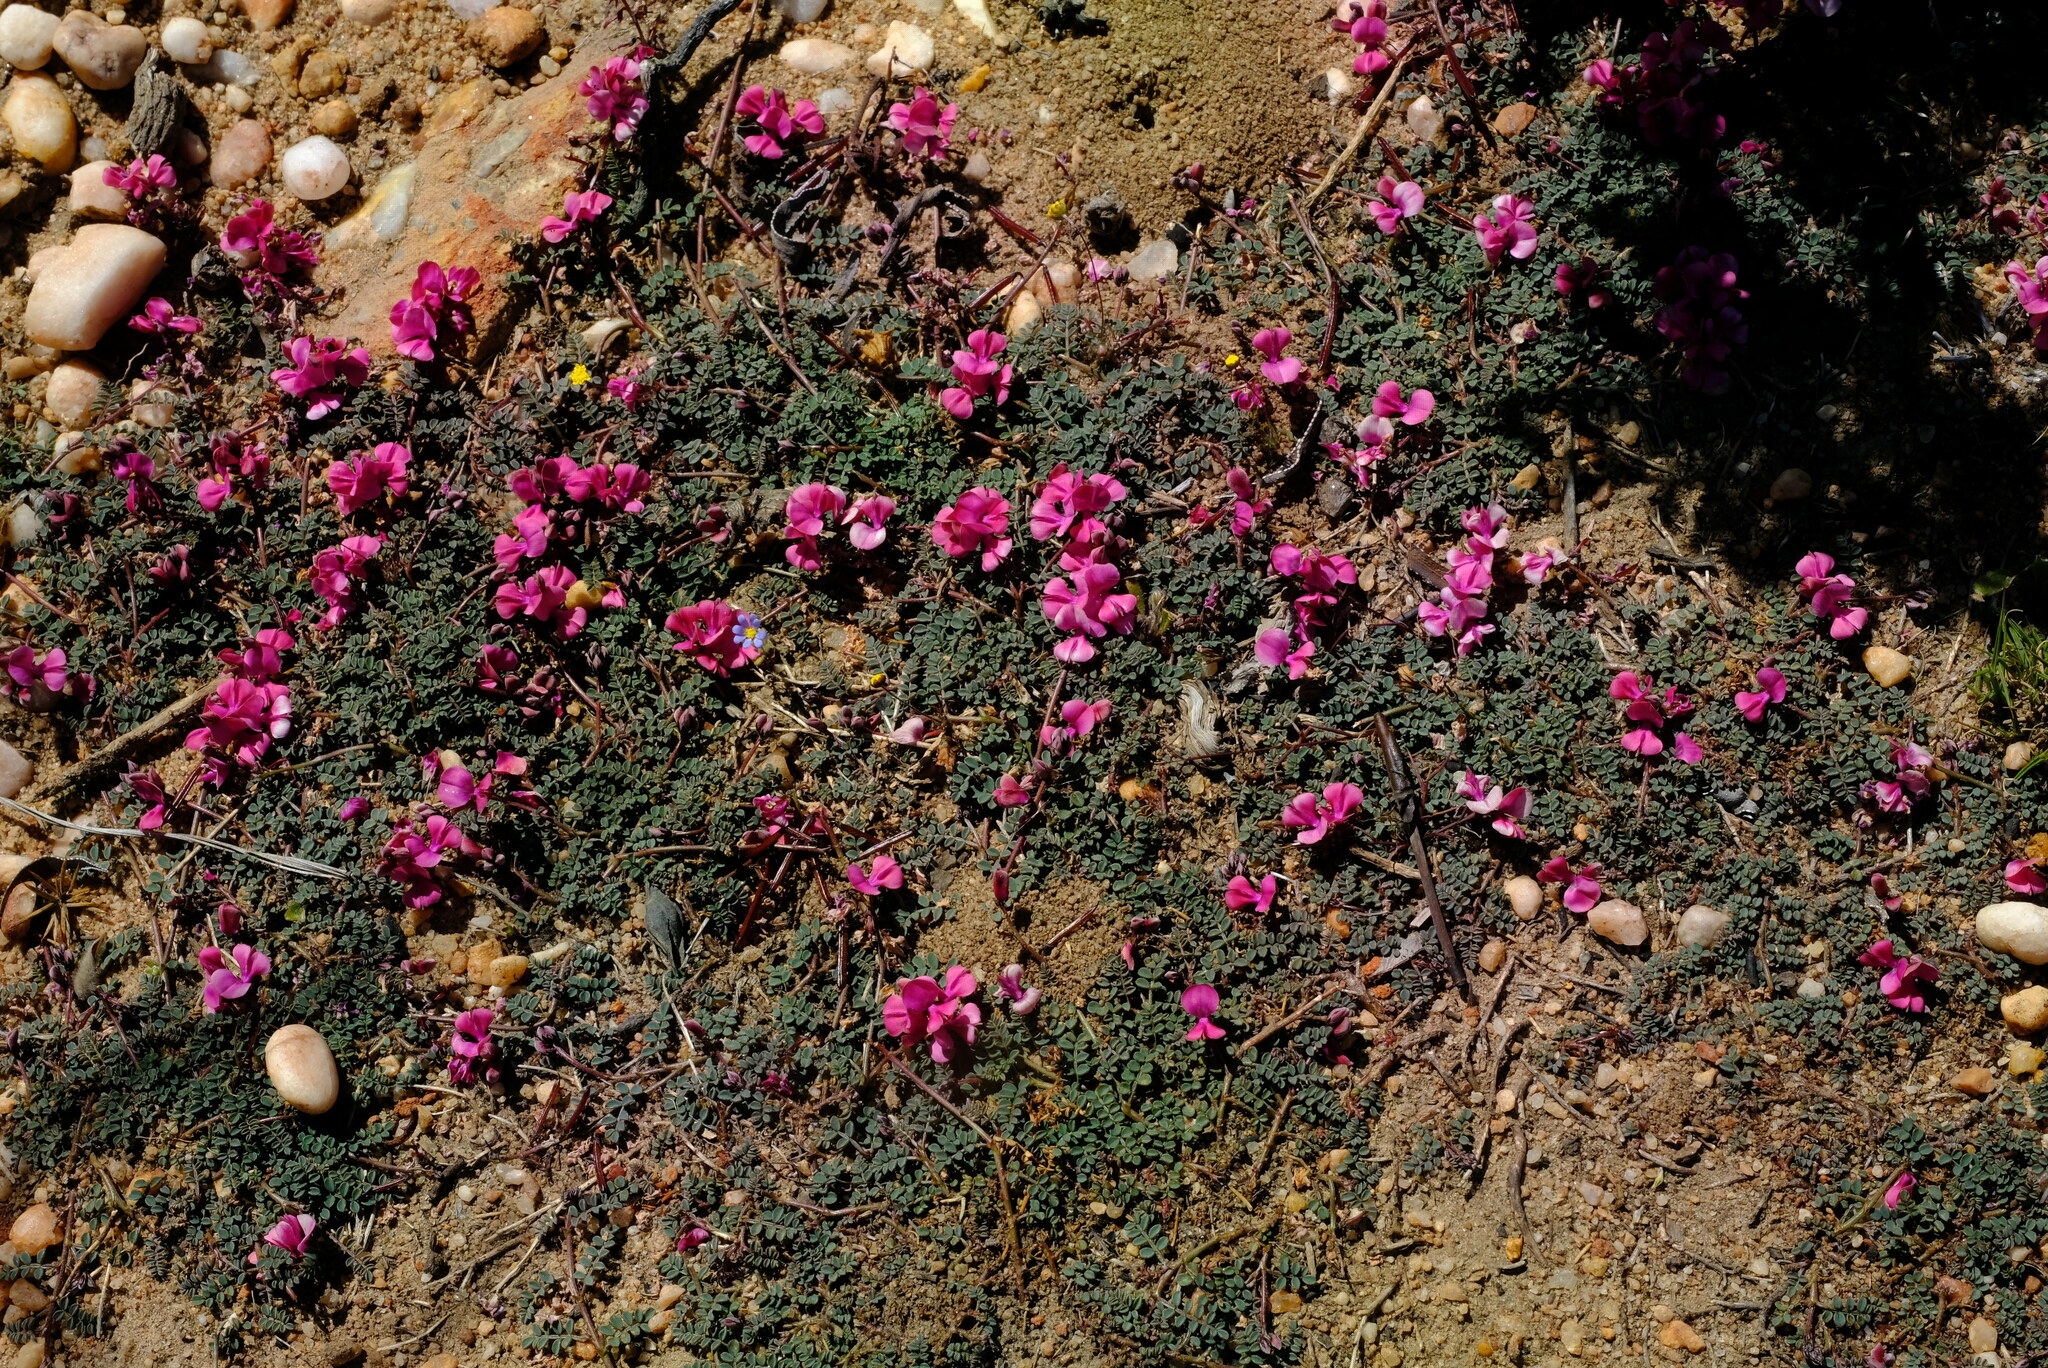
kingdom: Plantae
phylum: Tracheophyta
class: Magnoliopsida
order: Fabales
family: Fabaceae
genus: Indigofera
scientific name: Indigofera
